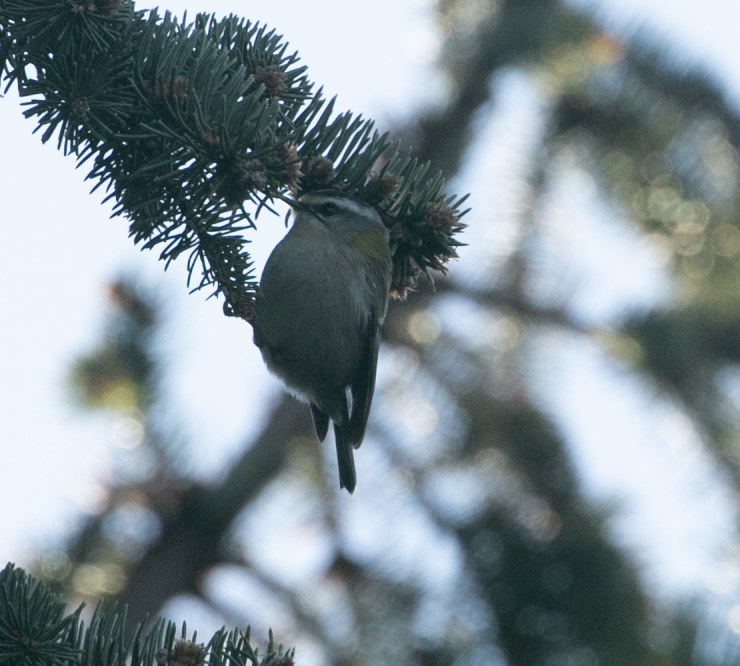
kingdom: Animalia
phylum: Chordata
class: Aves
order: Passeriformes
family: Regulidae
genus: Regulus
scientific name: Regulus ignicapilla
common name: Firecrest
